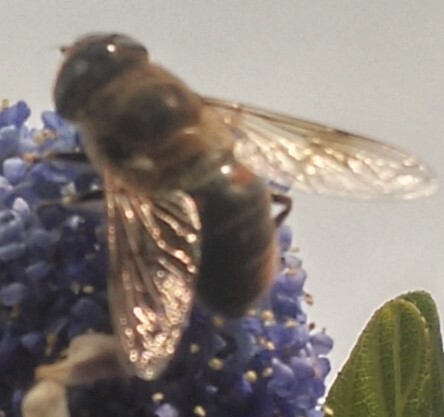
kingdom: Animalia
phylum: Arthropoda
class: Insecta
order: Diptera
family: Syrphidae
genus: Eristalis
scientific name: Eristalis tenax
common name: Drone fly
